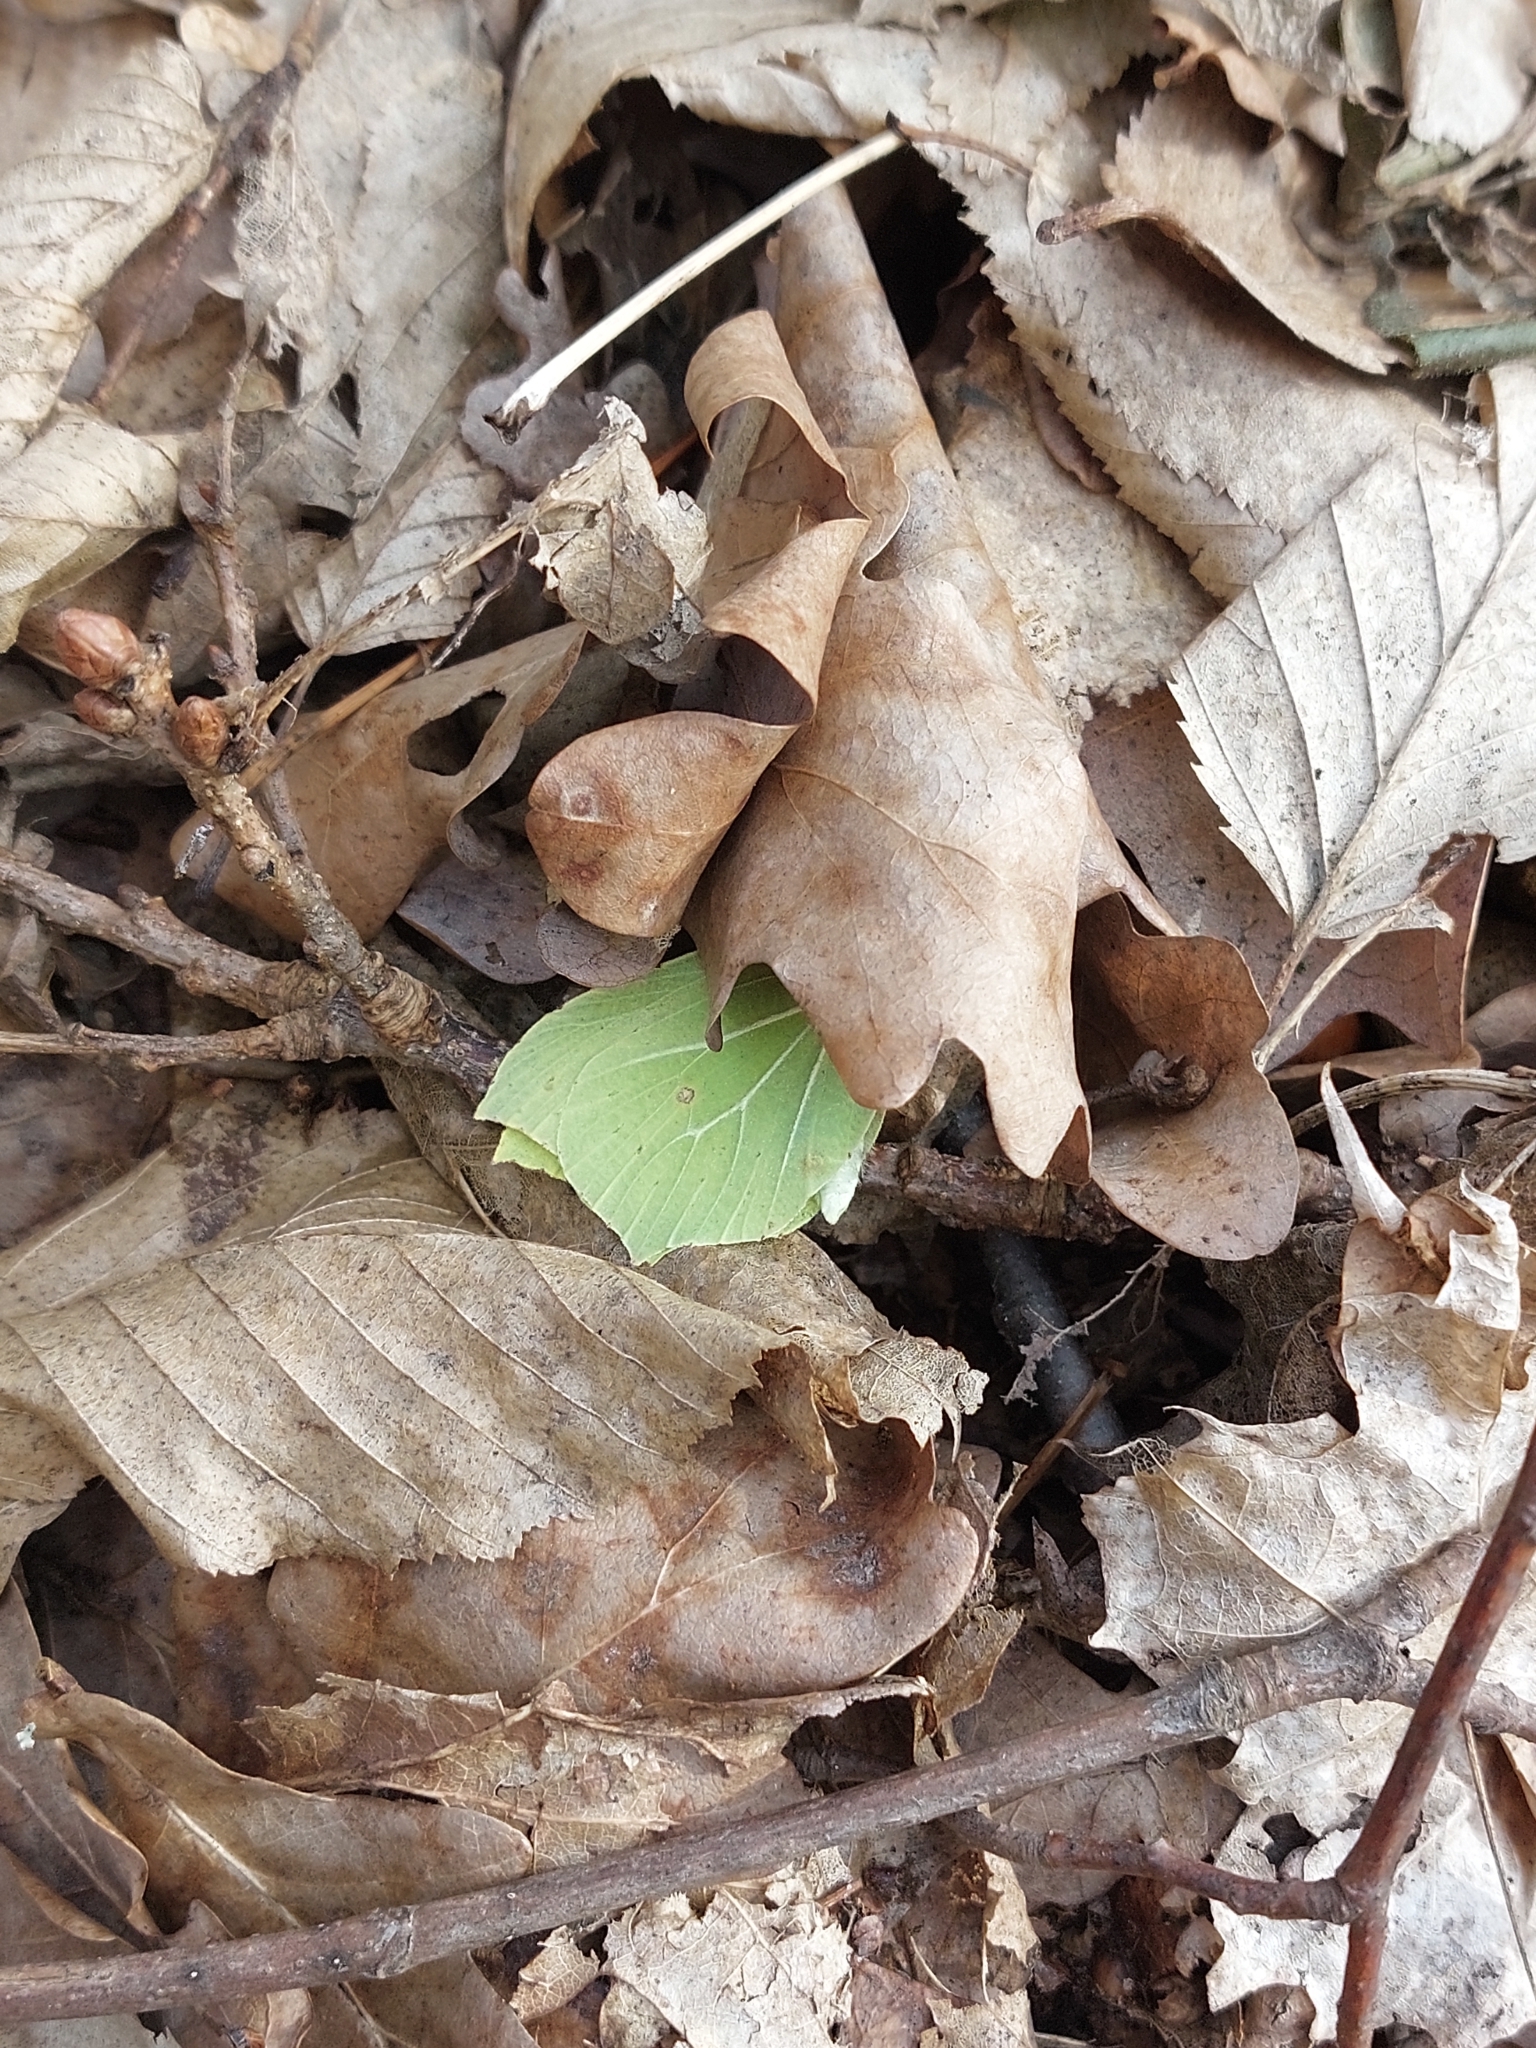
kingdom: Animalia
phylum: Arthropoda
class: Insecta
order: Lepidoptera
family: Pieridae
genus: Gonepteryx
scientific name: Gonepteryx rhamni
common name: Brimstone
